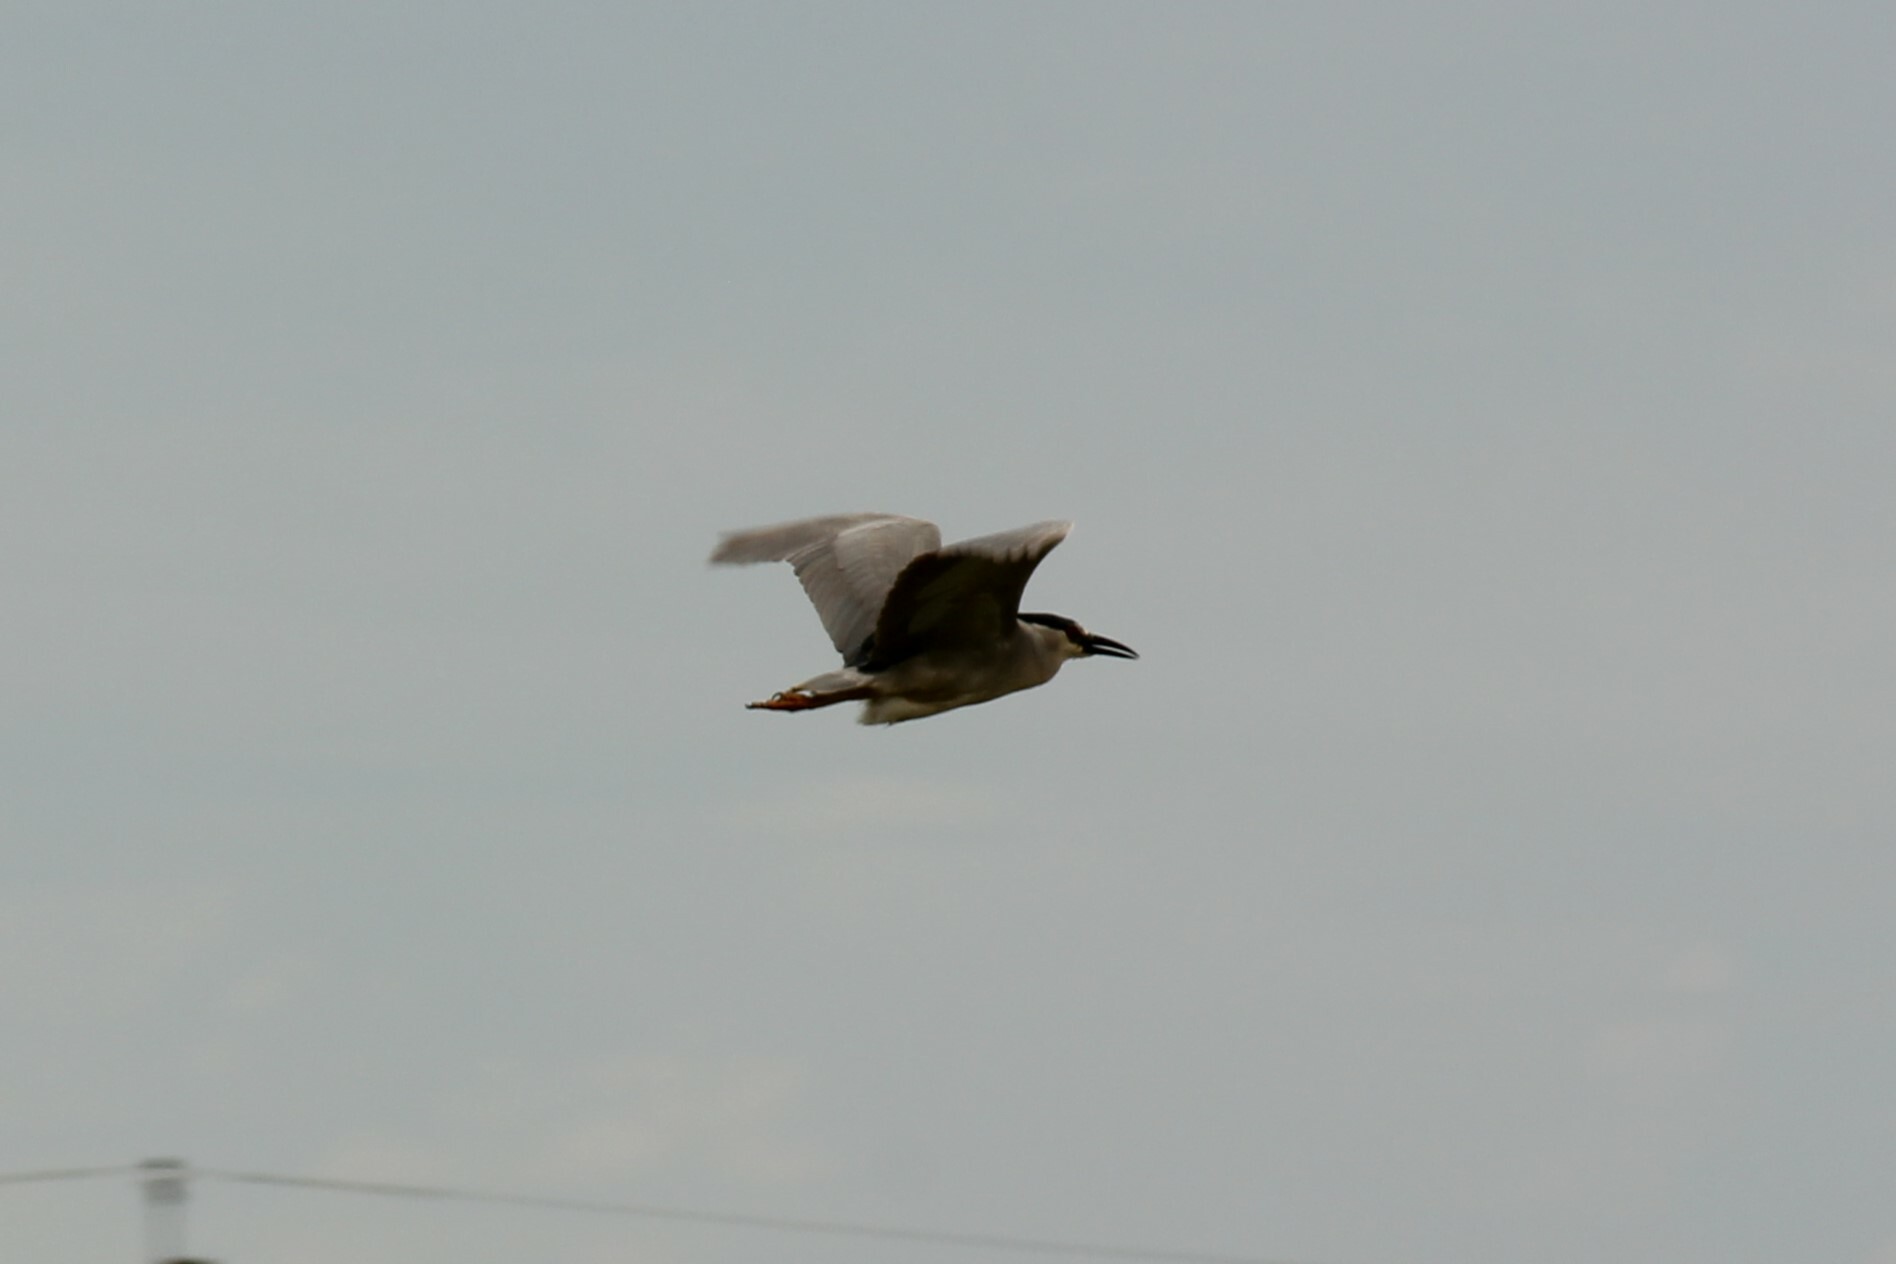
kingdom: Animalia
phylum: Chordata
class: Aves
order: Pelecaniformes
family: Ardeidae
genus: Nycticorax
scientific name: Nycticorax nycticorax
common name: Black-crowned night heron
